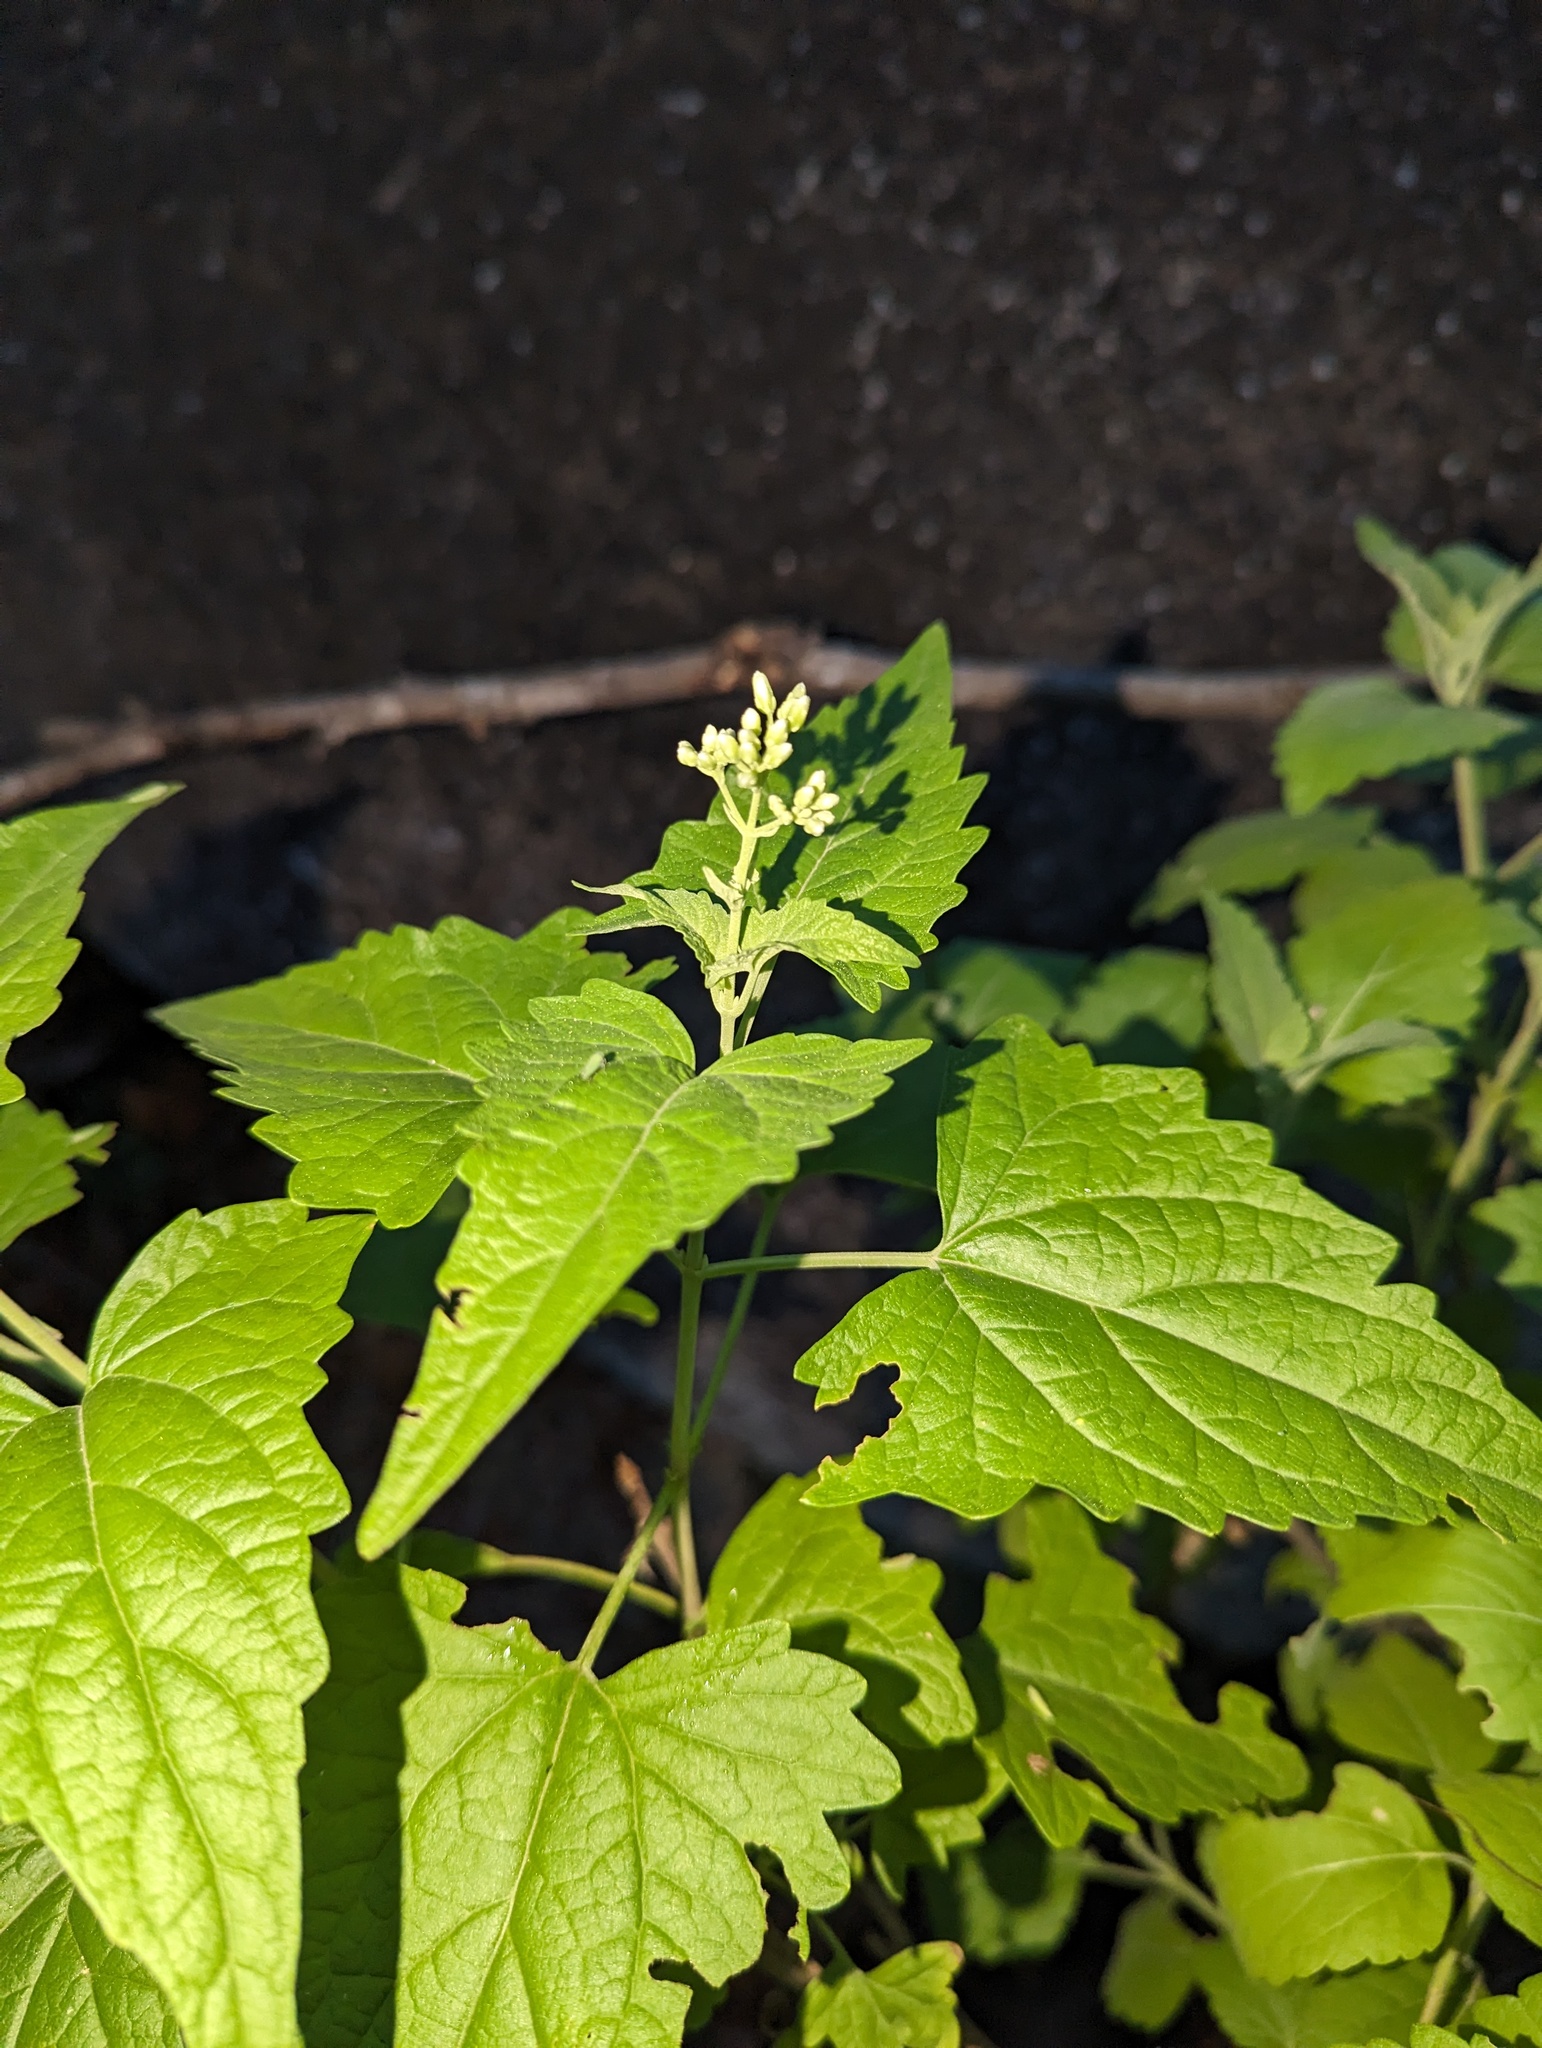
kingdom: Plantae
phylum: Tracheophyta
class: Magnoliopsida
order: Asterales
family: Asteraceae
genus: Koanophyllon
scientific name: Koanophyllon peninsulare
